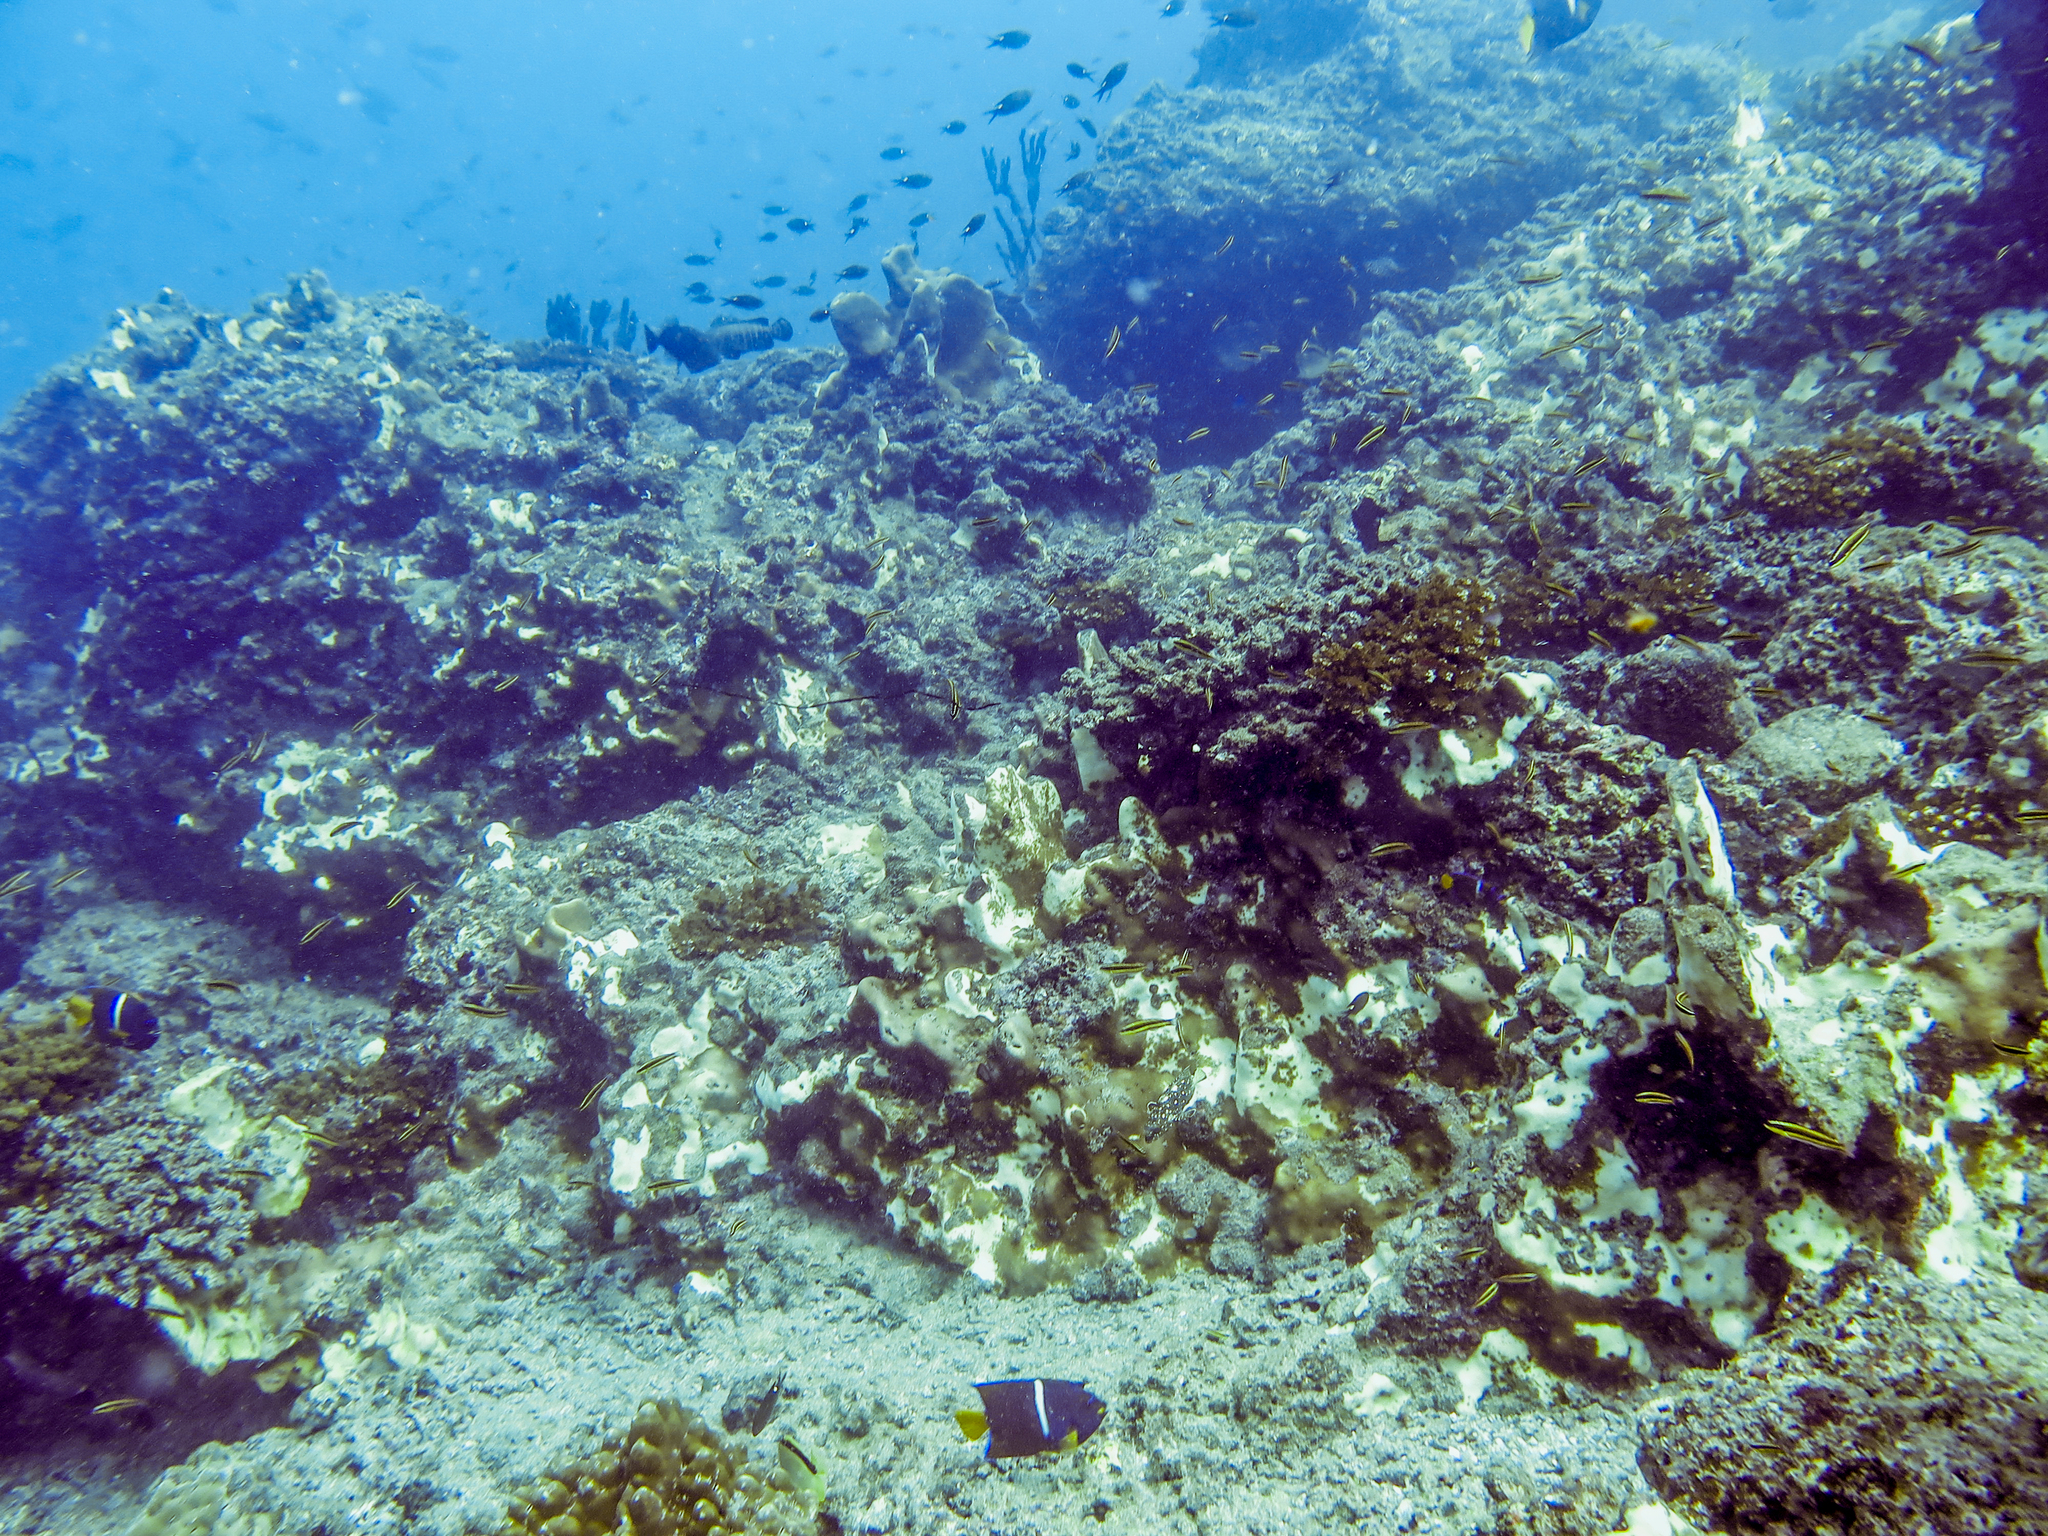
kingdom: Animalia
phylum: Chordata
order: Perciformes
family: Pomacentridae
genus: Chromis
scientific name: Chromis atrilobata
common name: Scissortail damselfish
